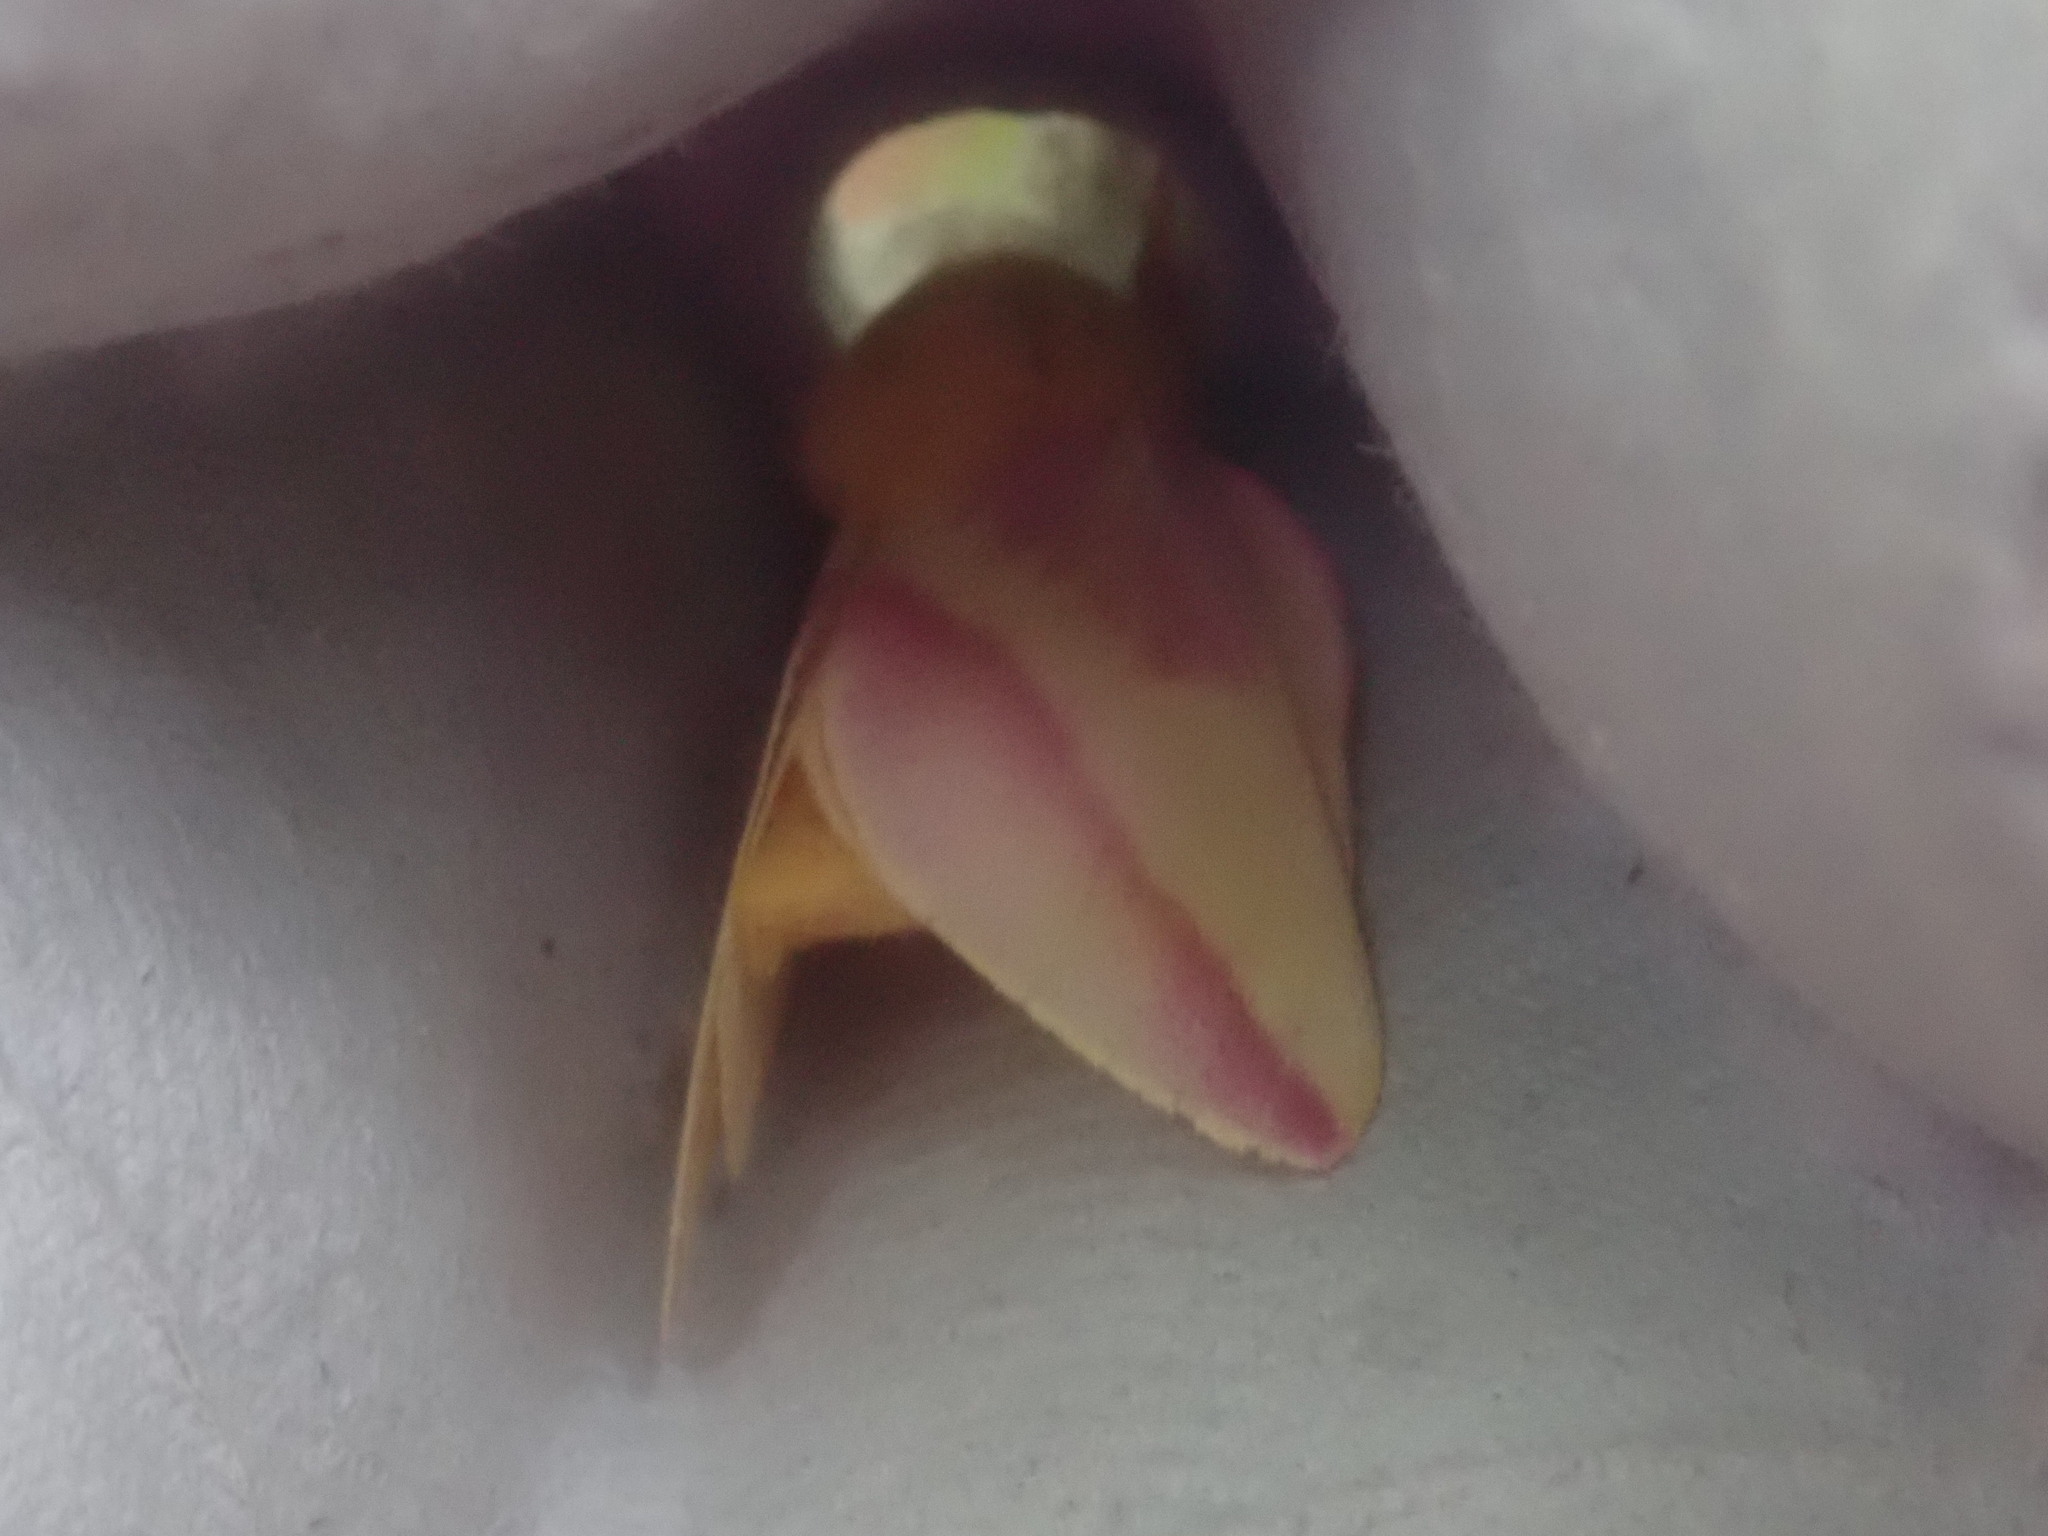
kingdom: Animalia
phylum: Arthropoda
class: Insecta
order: Lepidoptera
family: Saturniidae
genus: Dryocampa
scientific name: Dryocampa rubicunda
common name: Rosy maple moth
